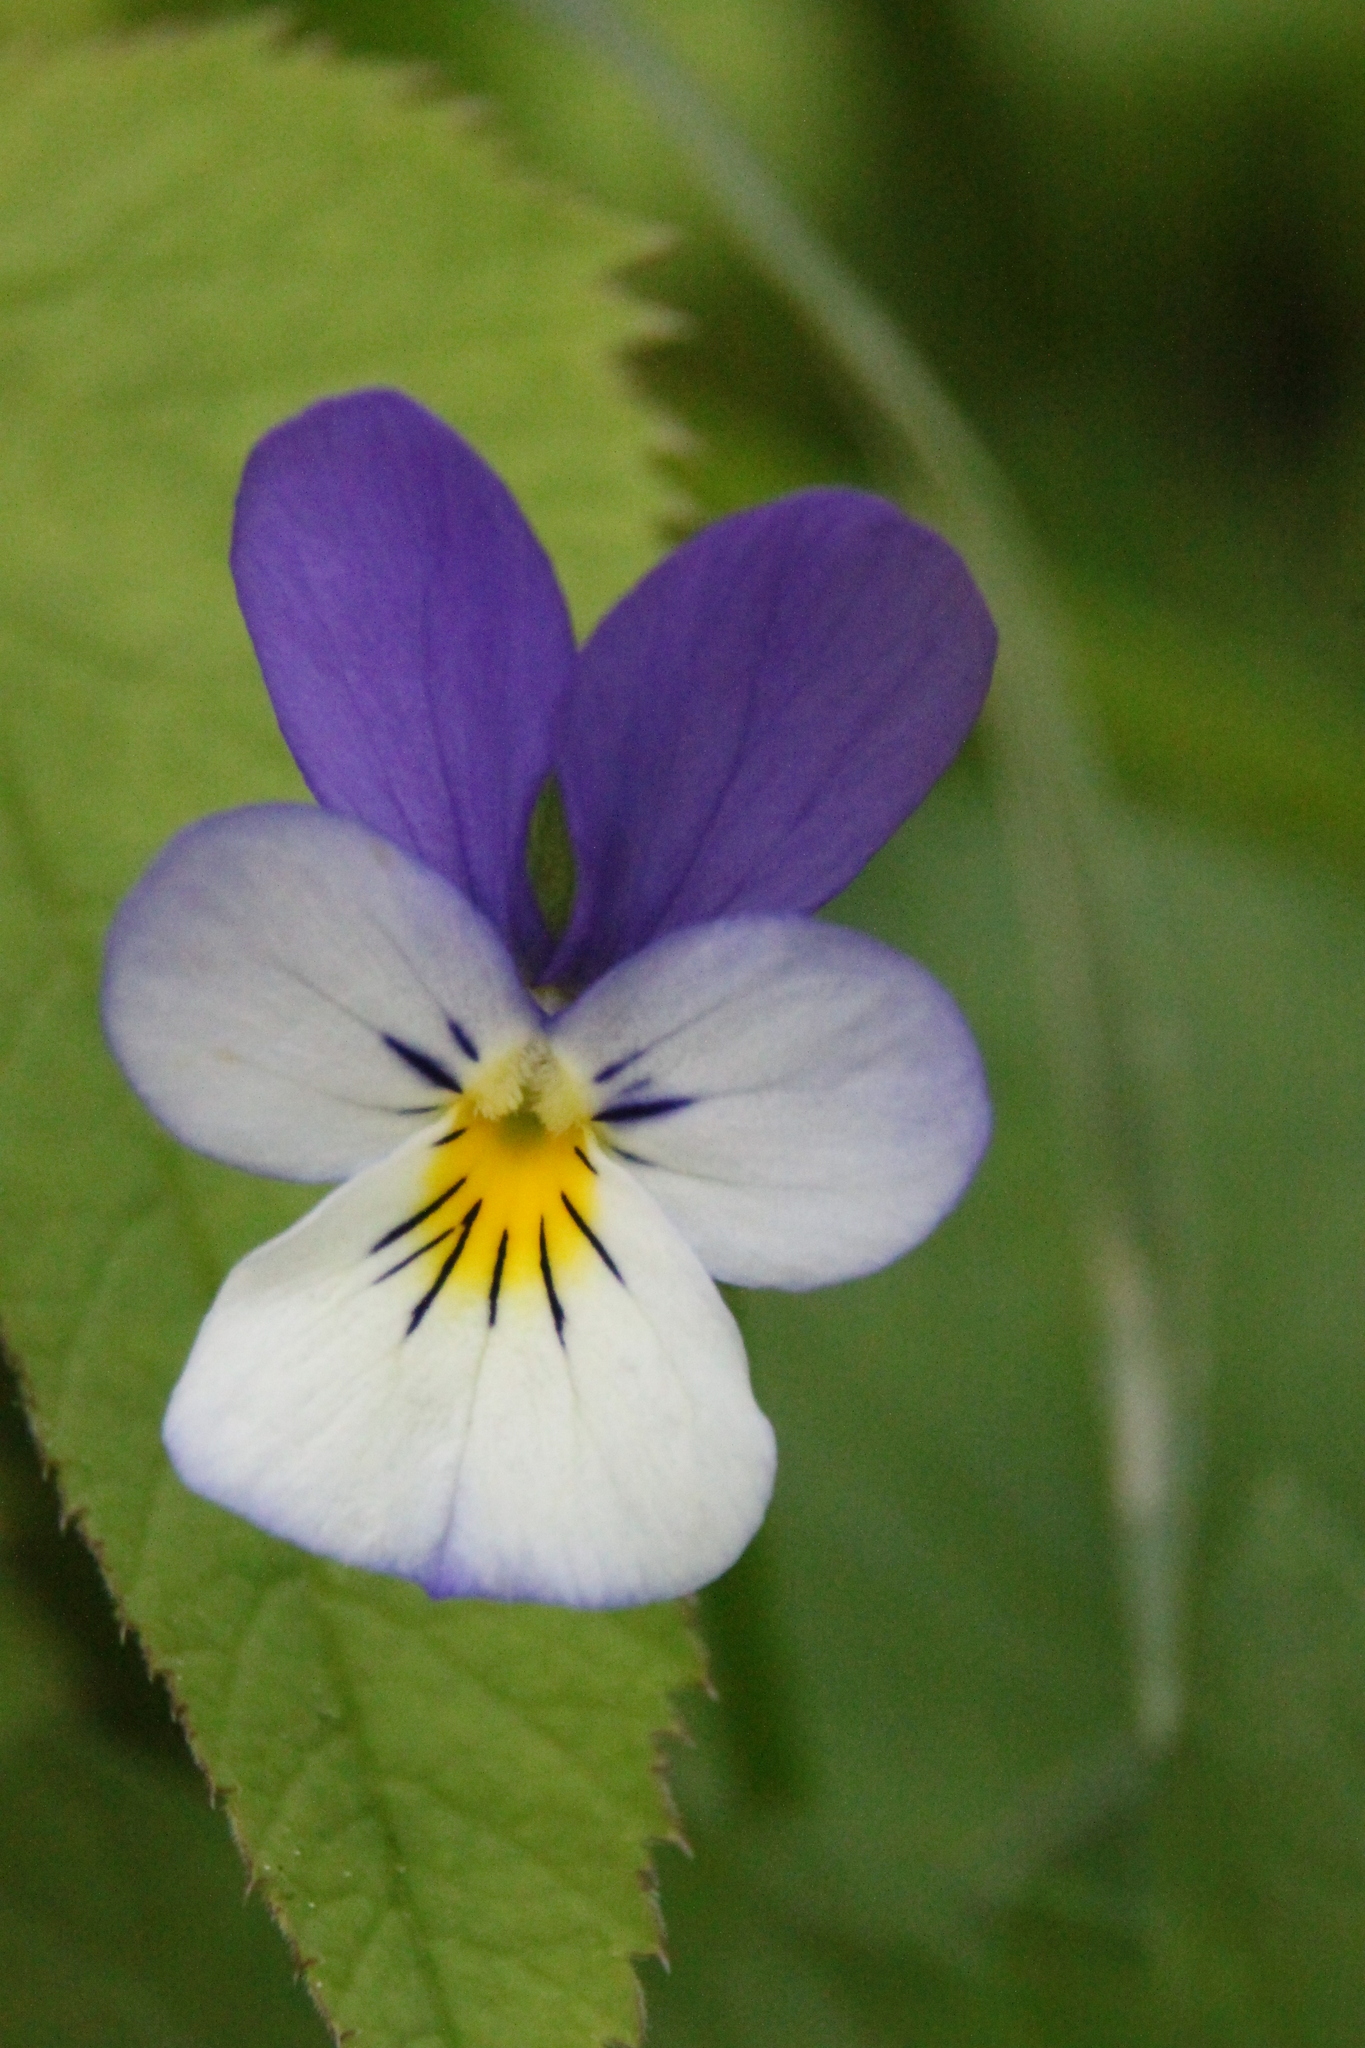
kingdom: Plantae
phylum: Tracheophyta
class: Magnoliopsida
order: Malpighiales
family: Violaceae
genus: Viola
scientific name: Viola tricolor
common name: Pansy
